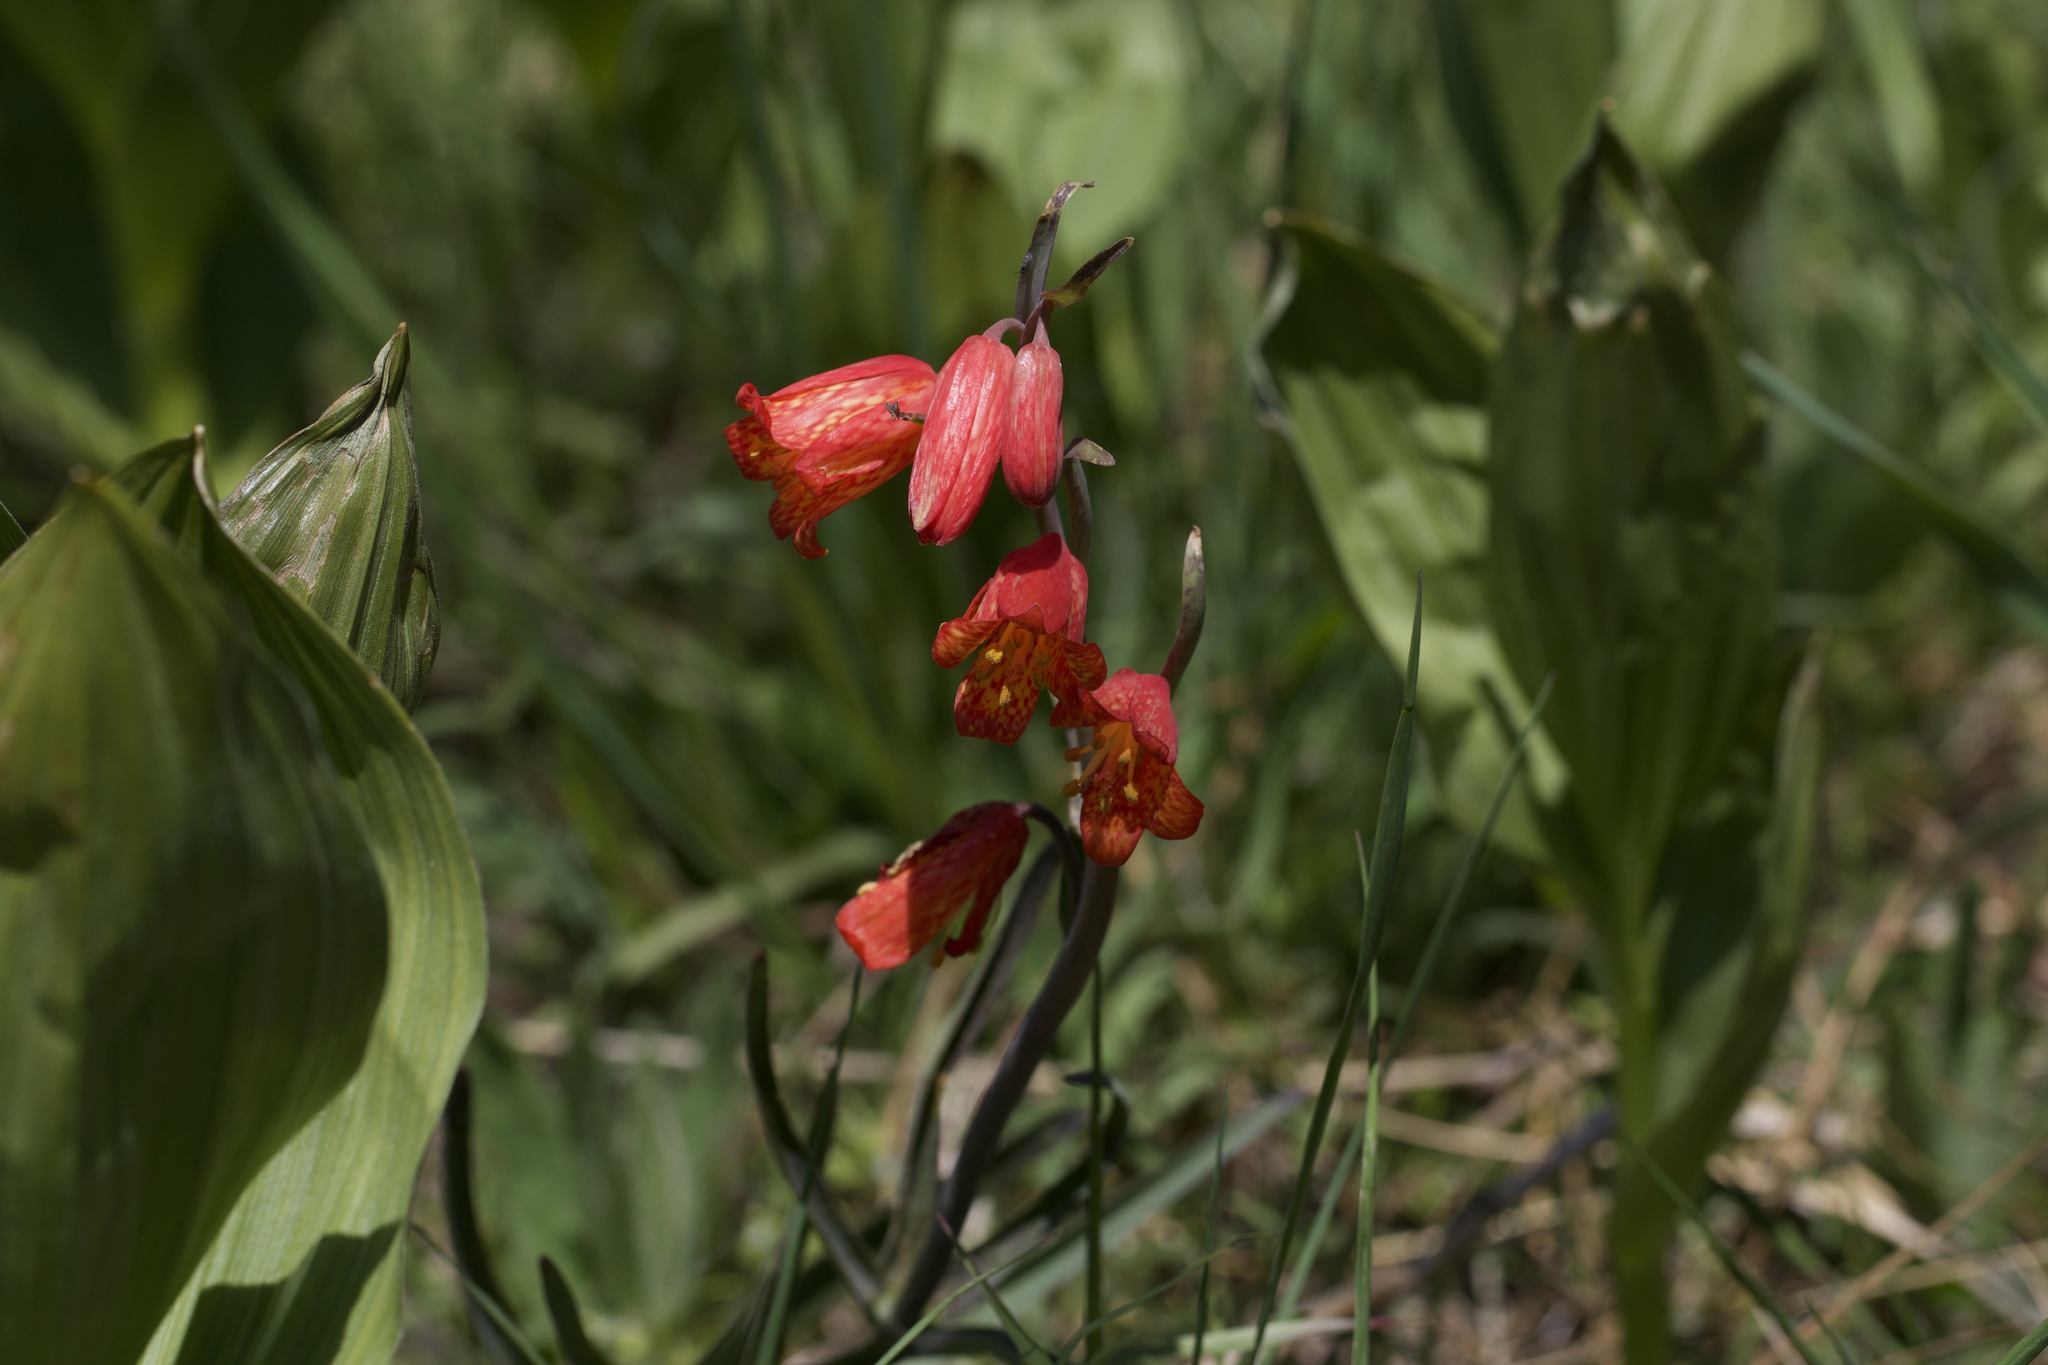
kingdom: Plantae
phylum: Tracheophyta
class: Liliopsida
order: Liliales
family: Liliaceae
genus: Fritillaria
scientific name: Fritillaria recurva
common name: Scarlet fritillary
